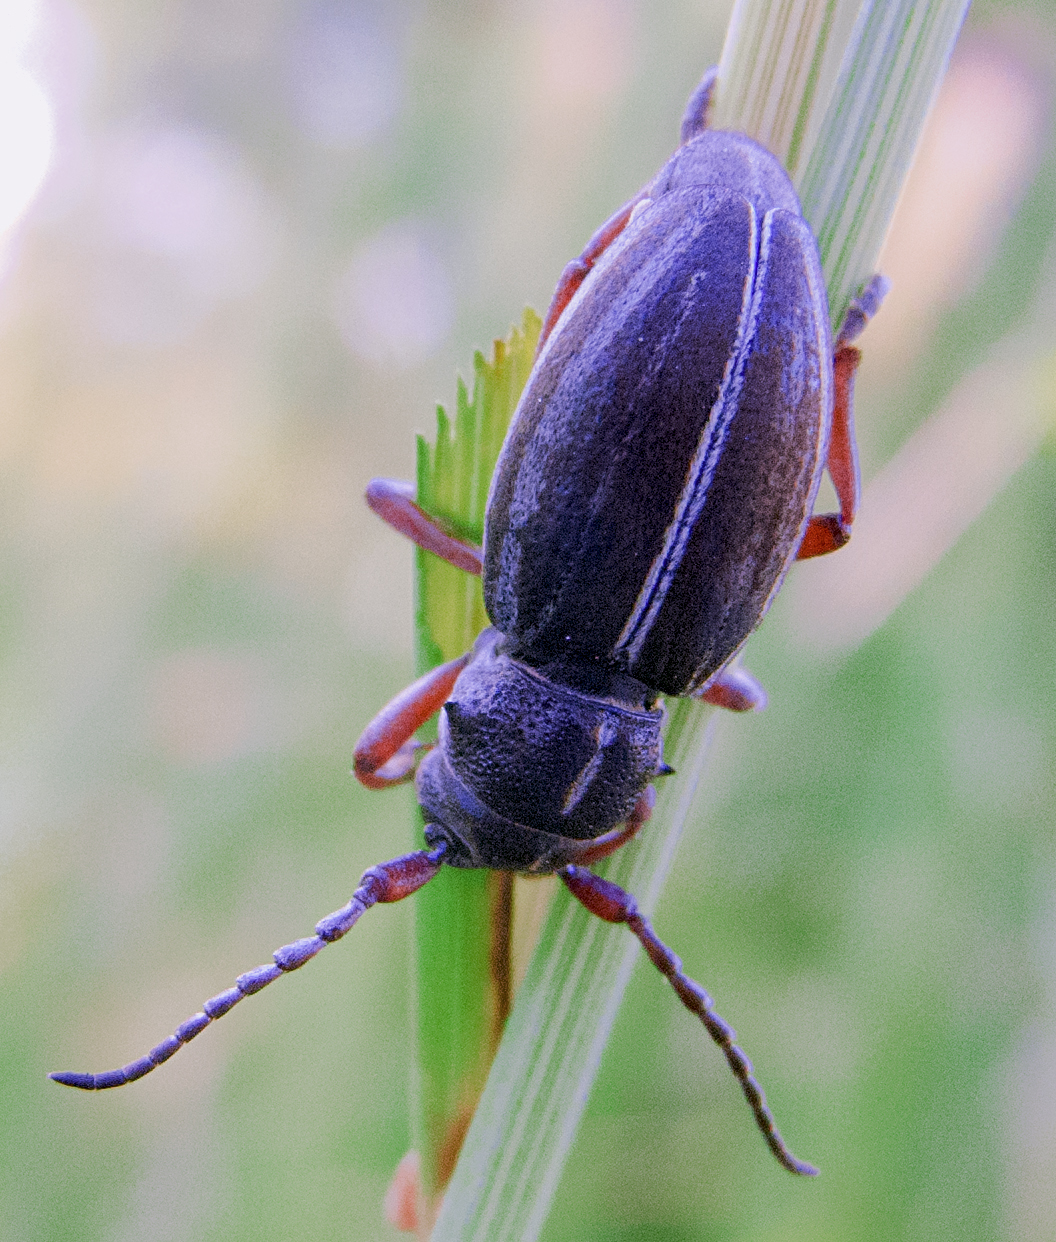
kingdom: Animalia
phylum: Arthropoda
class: Insecta
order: Coleoptera
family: Cerambycidae
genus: Dorcadion
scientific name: Dorcadion tauricum
